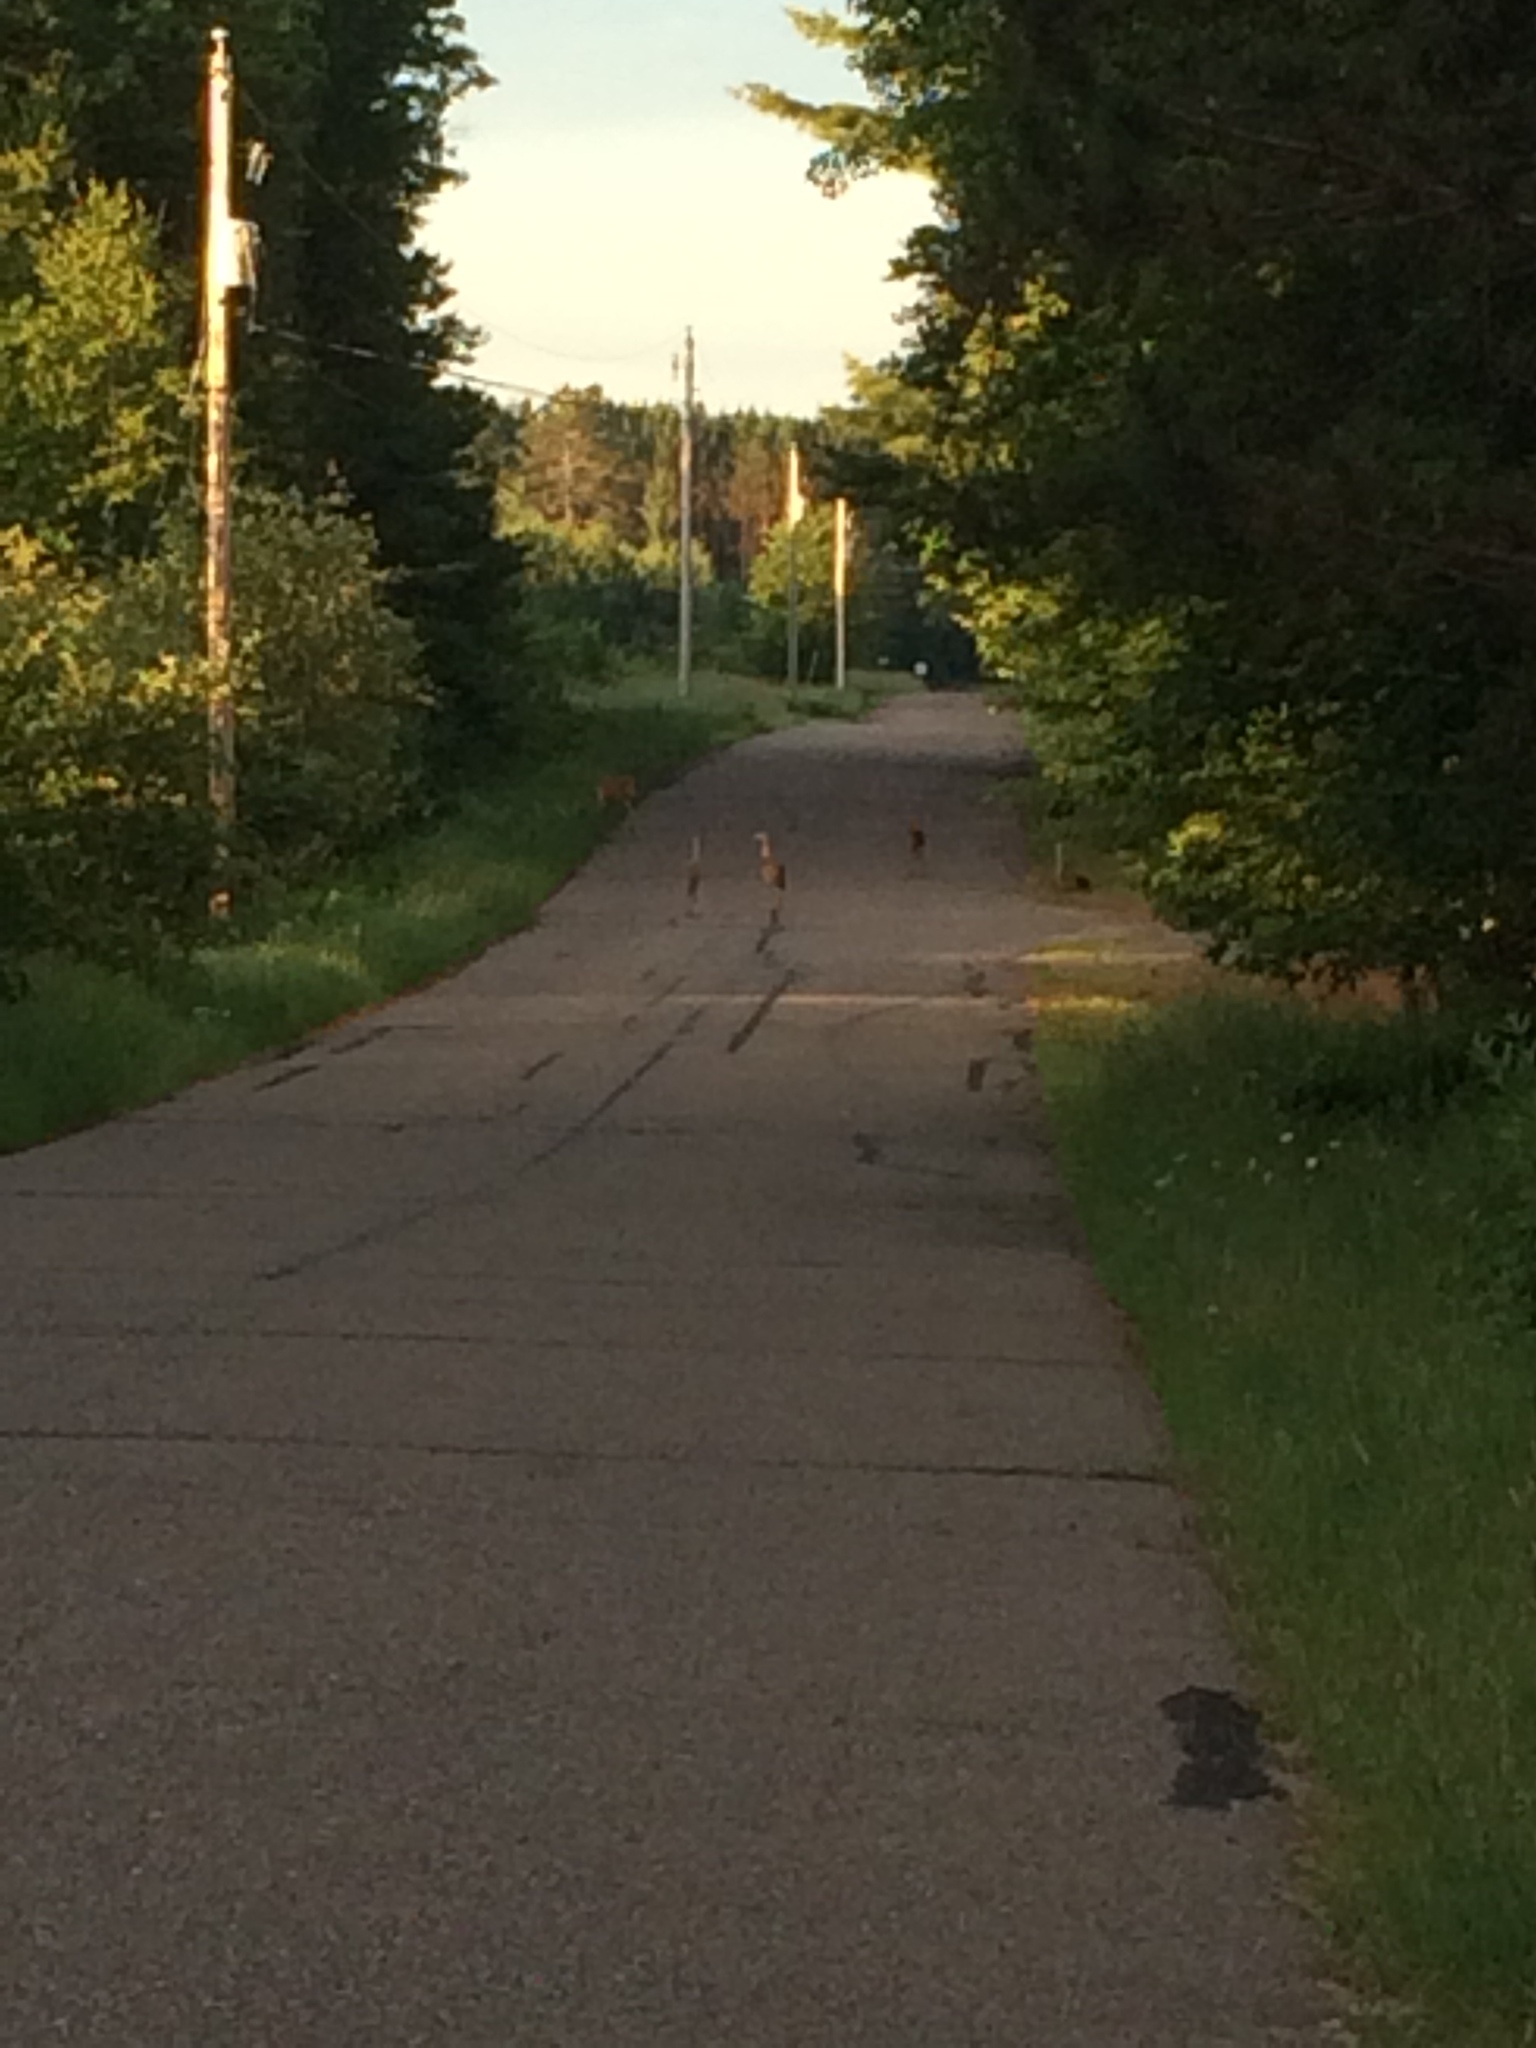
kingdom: Animalia
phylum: Chordata
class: Aves
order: Gruiformes
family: Gruidae
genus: Grus
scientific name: Grus canadensis
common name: Sandhill crane
